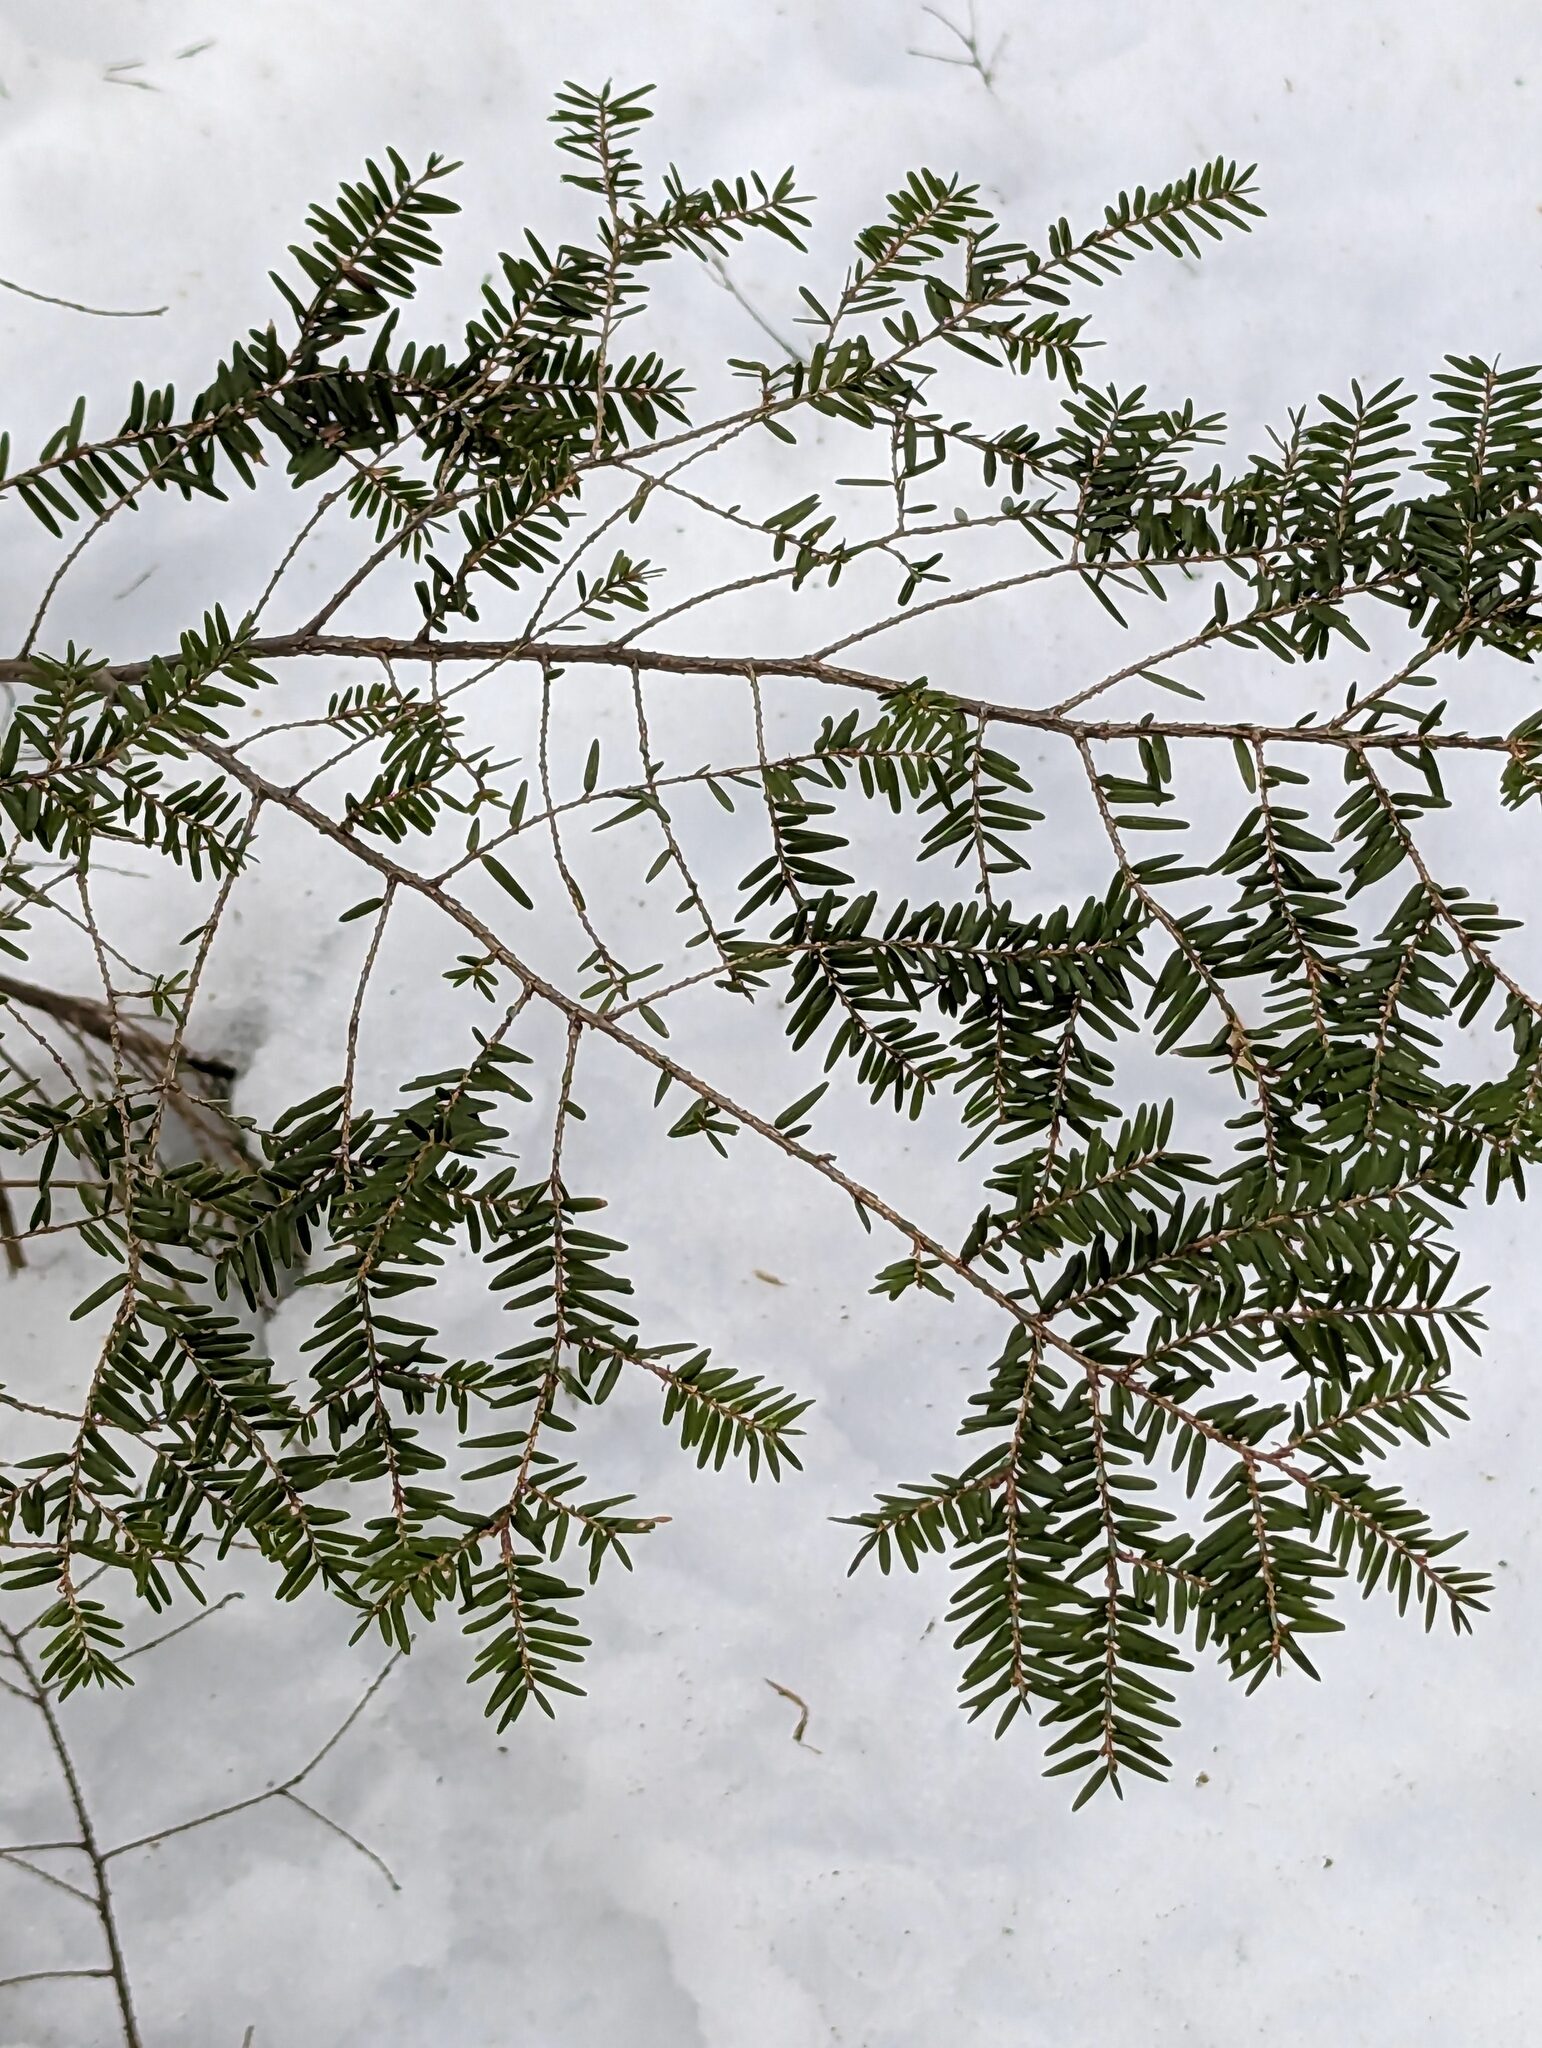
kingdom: Plantae
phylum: Tracheophyta
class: Pinopsida
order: Pinales
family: Pinaceae
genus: Tsuga
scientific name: Tsuga canadensis
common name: Eastern hemlock
